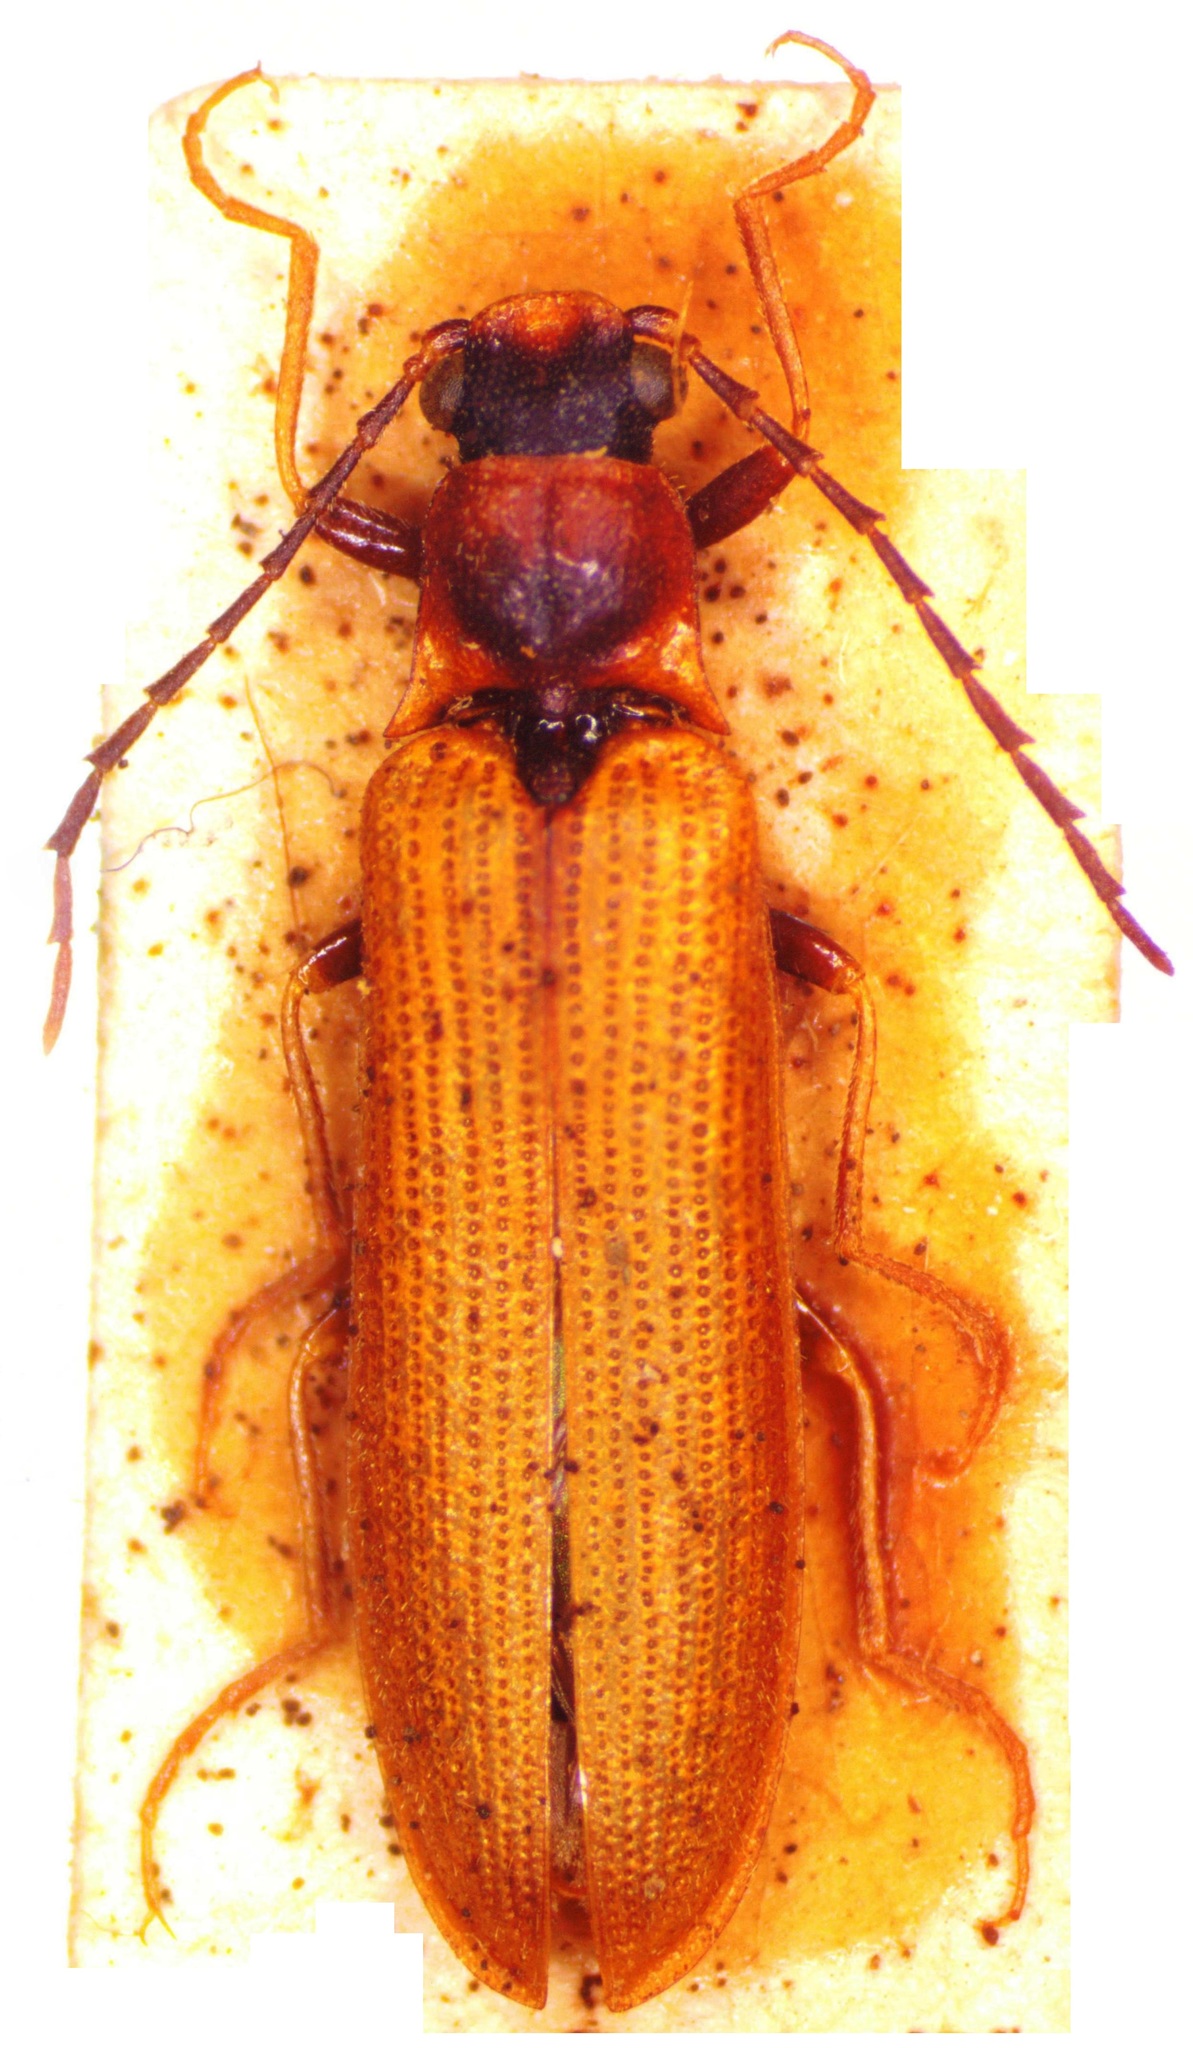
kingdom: Animalia
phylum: Arthropoda
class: Insecta
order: Coleoptera
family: Elateridae
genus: Denticollis
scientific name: Denticollis linearis
